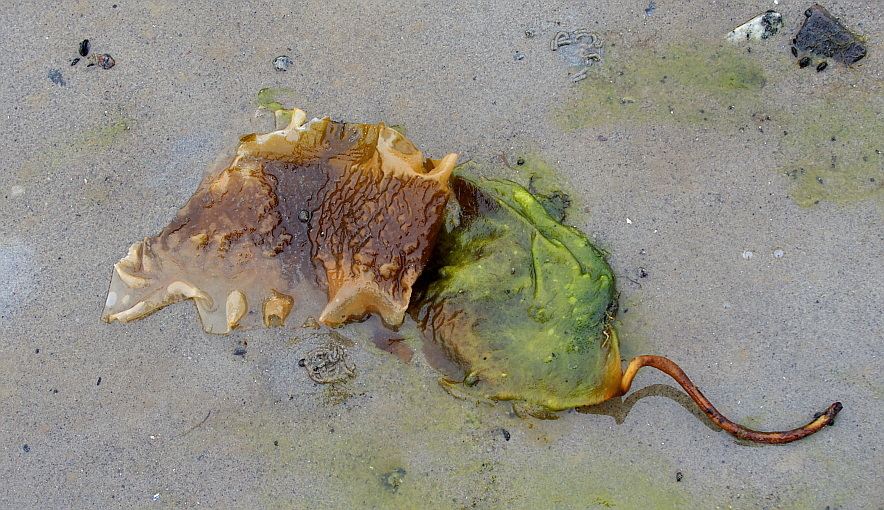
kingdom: Chromista
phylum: Ochrophyta
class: Phaeophyceae
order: Laminariales
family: Laminariaceae
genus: Saccharina
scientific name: Saccharina latissima
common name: Poor man's weather glass
